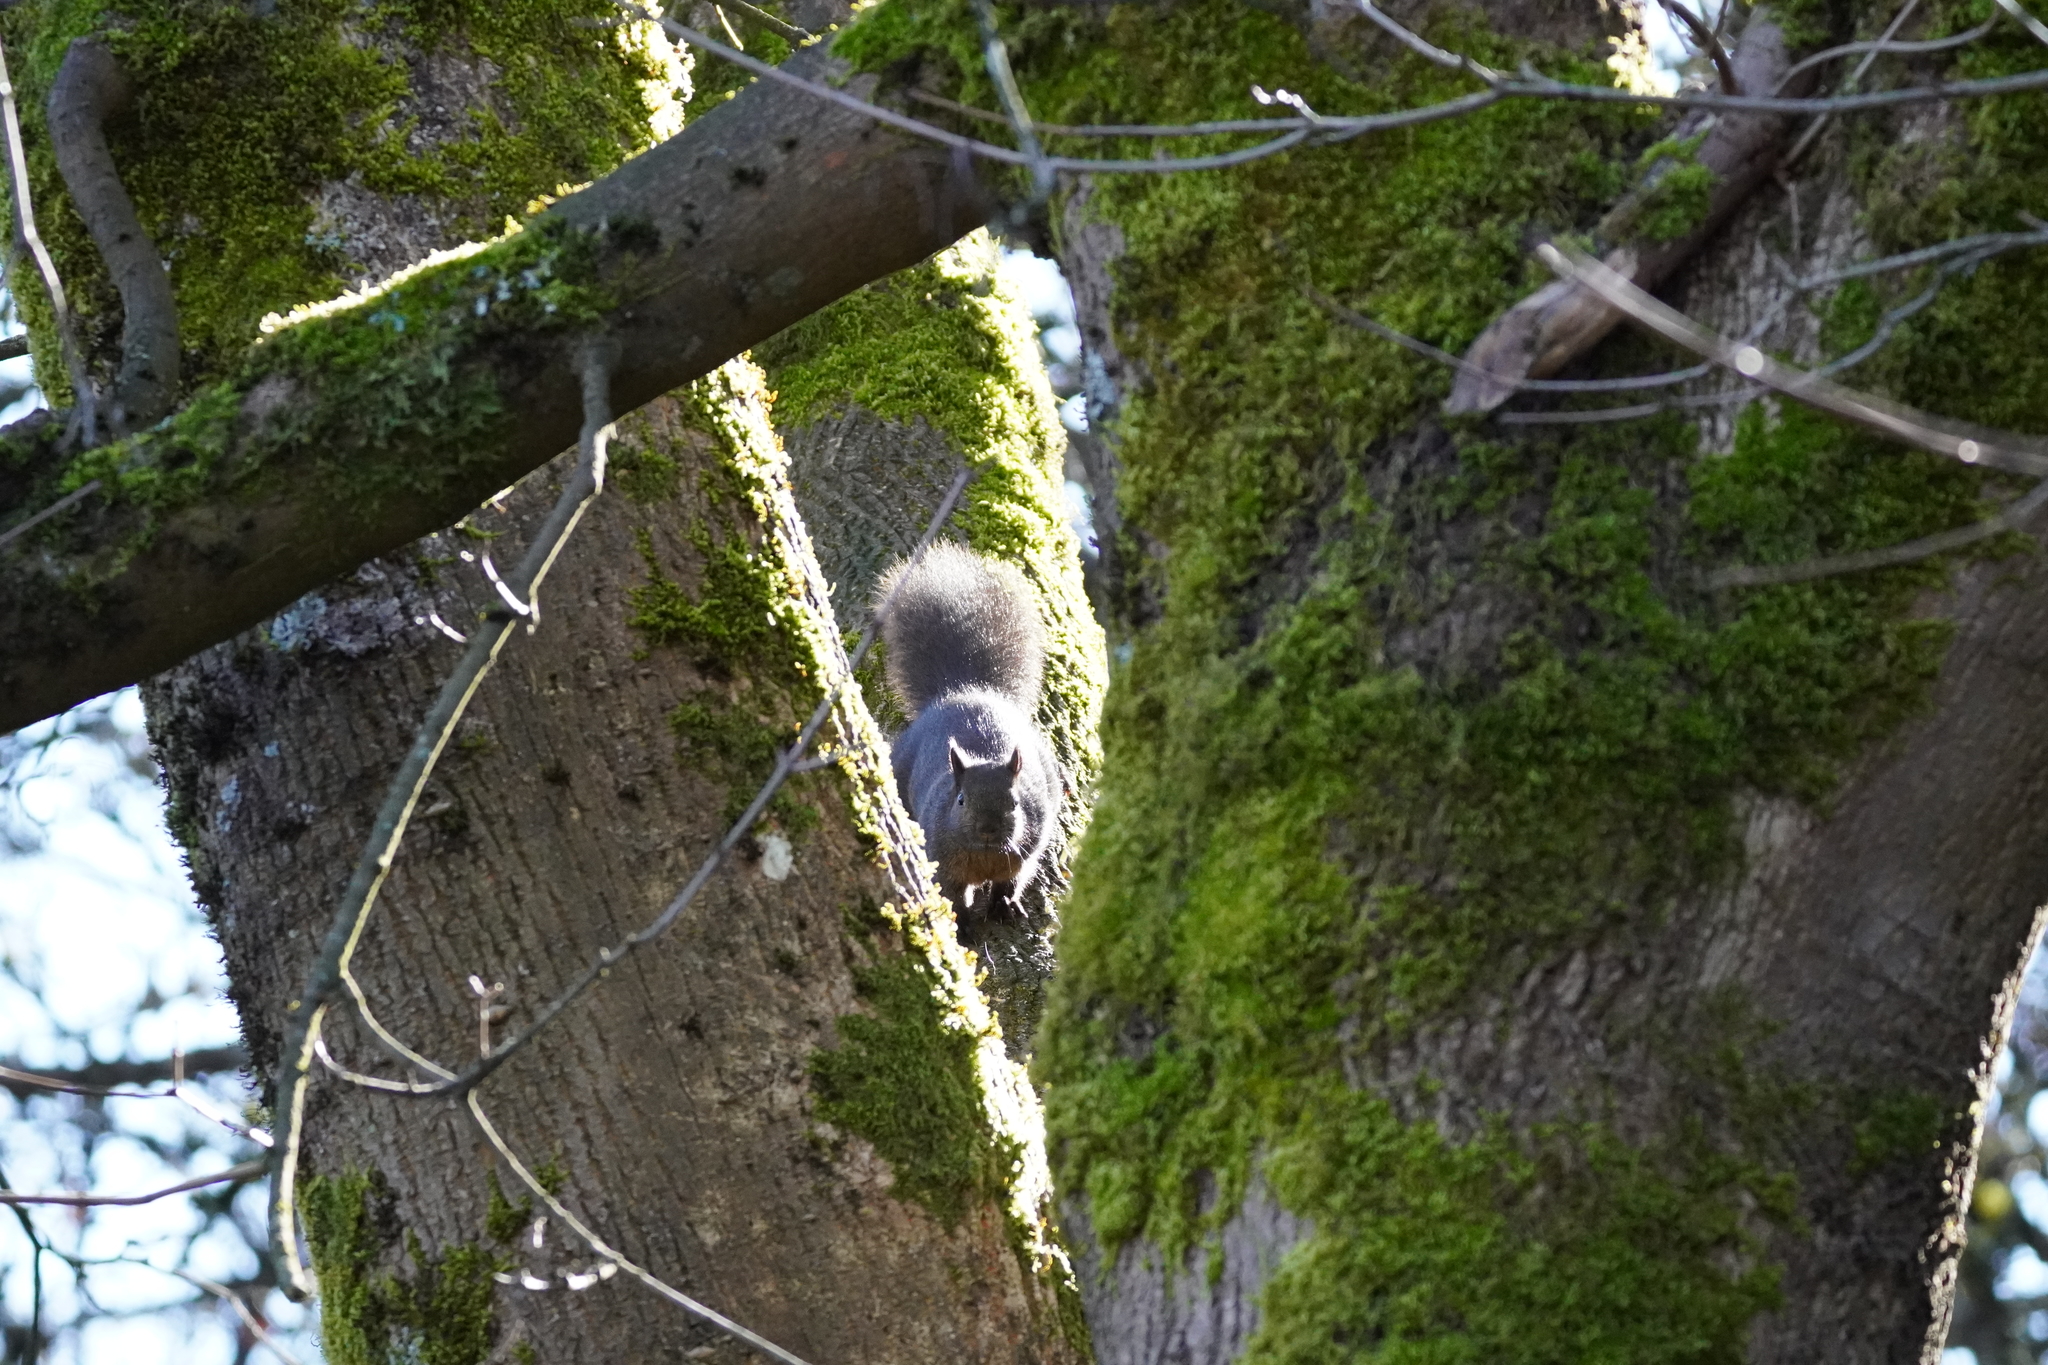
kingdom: Animalia
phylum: Chordata
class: Mammalia
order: Rodentia
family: Sciuridae
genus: Sciurus
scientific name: Sciurus carolinensis
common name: Eastern gray squirrel
